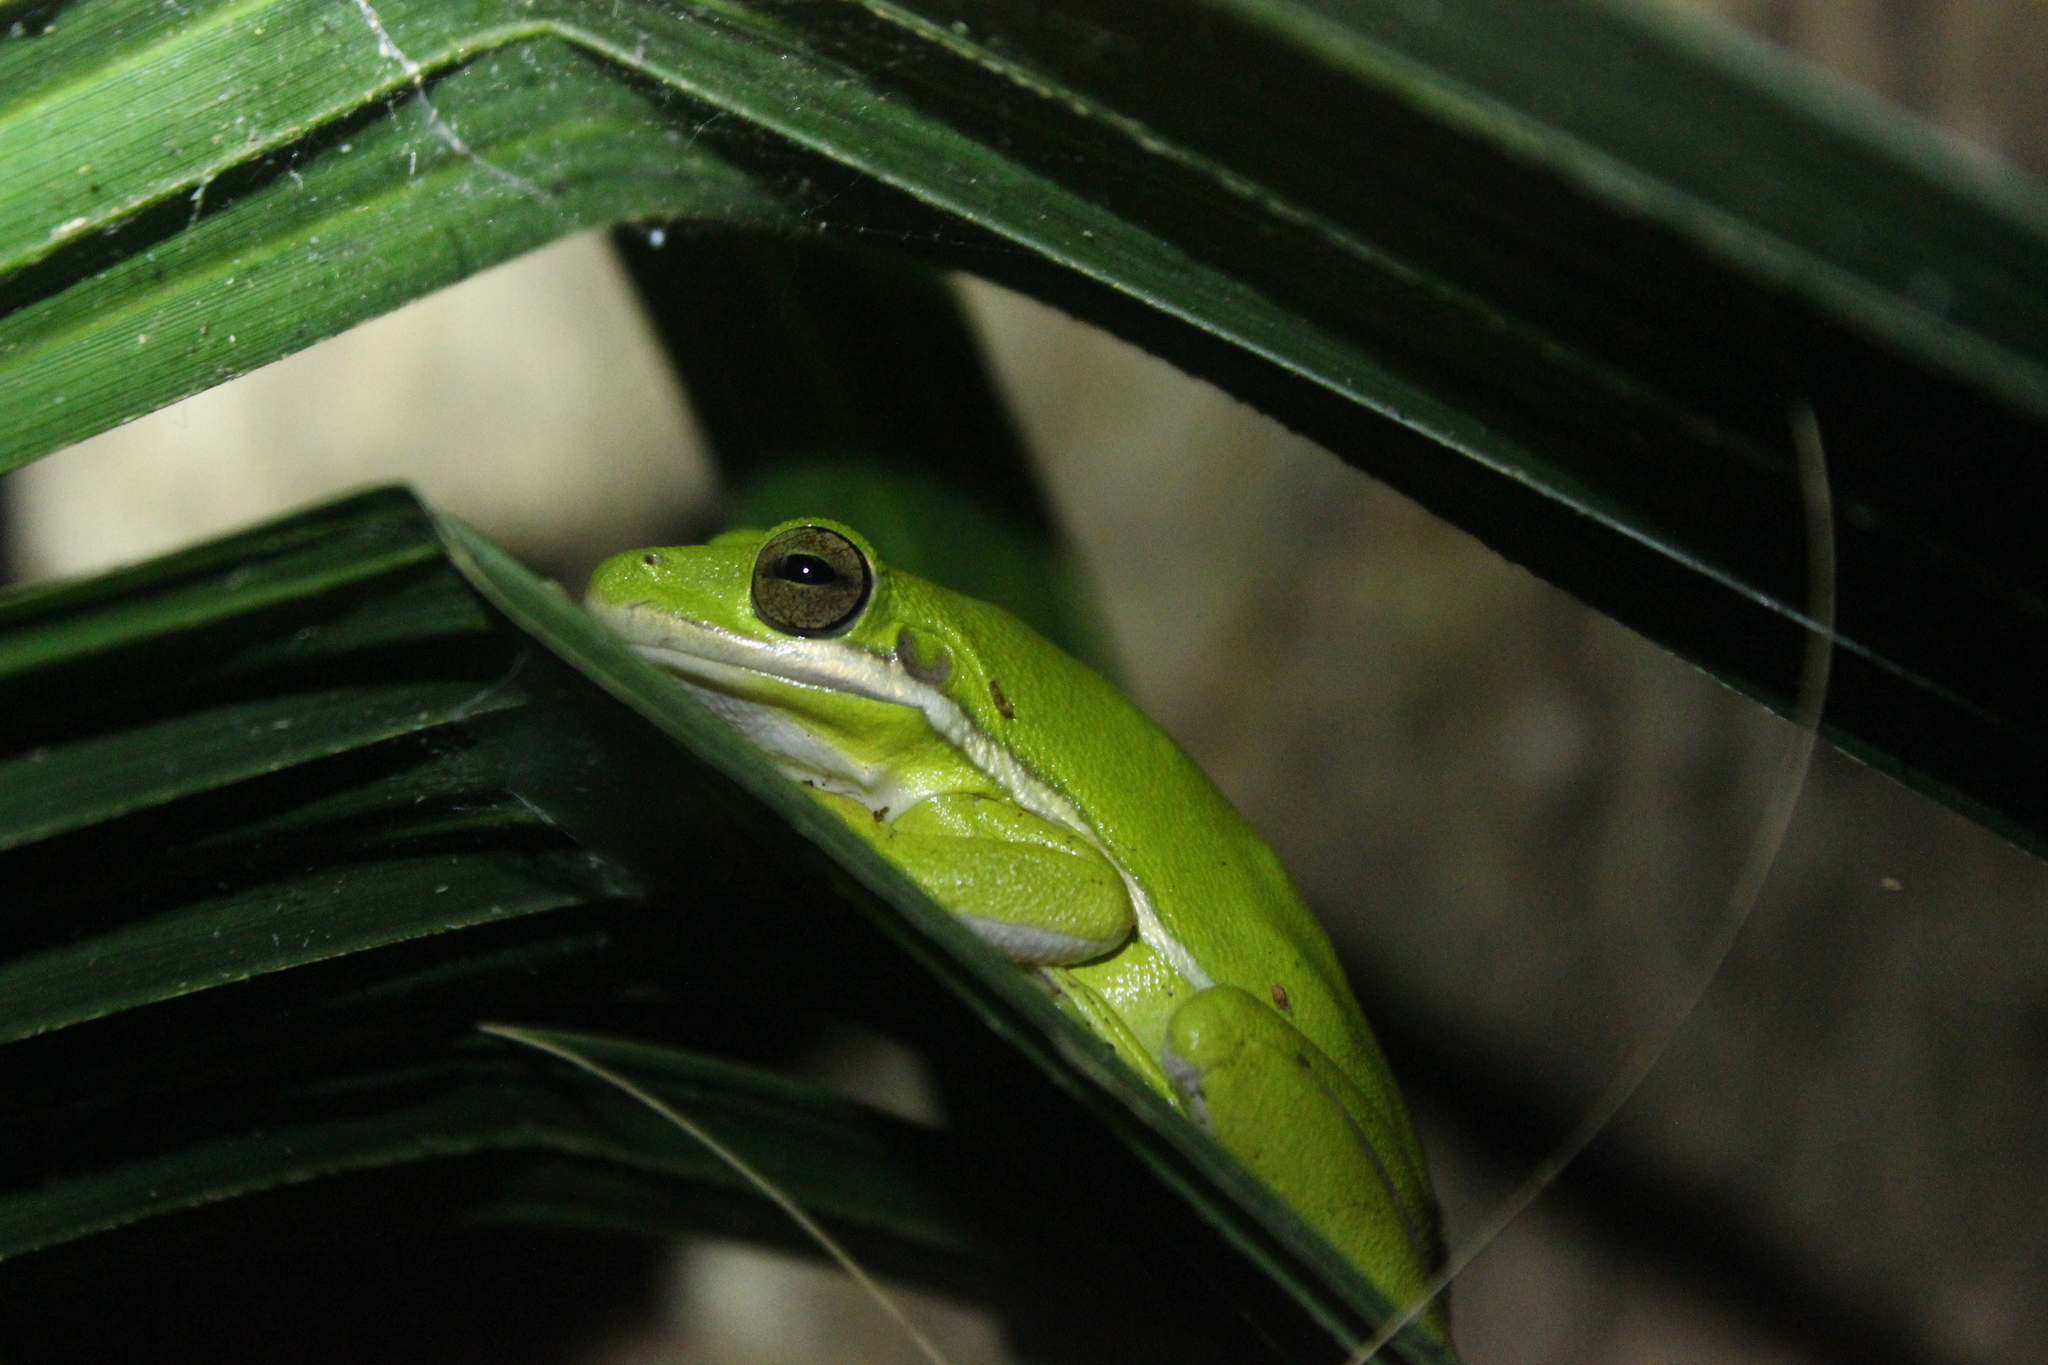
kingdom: Animalia
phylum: Chordata
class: Amphibia
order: Anura
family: Hylidae
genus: Dryophytes
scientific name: Dryophytes cinereus
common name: Green treefrog
